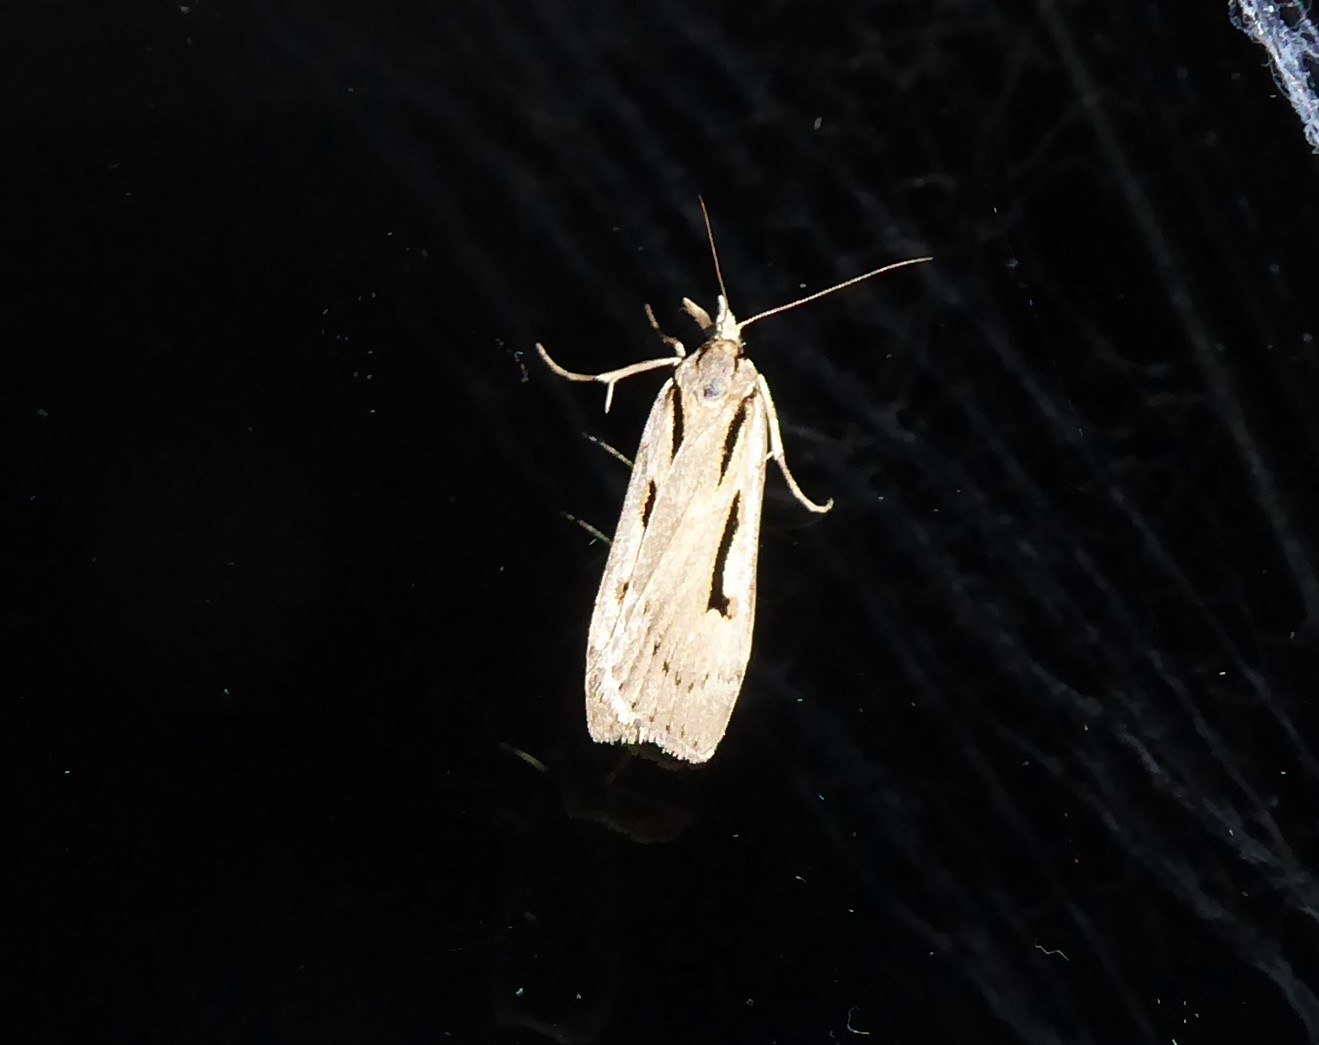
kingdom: Animalia
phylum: Arthropoda
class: Insecta
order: Lepidoptera
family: Crambidae
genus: Scoparia
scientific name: Scoparia rotuellus
